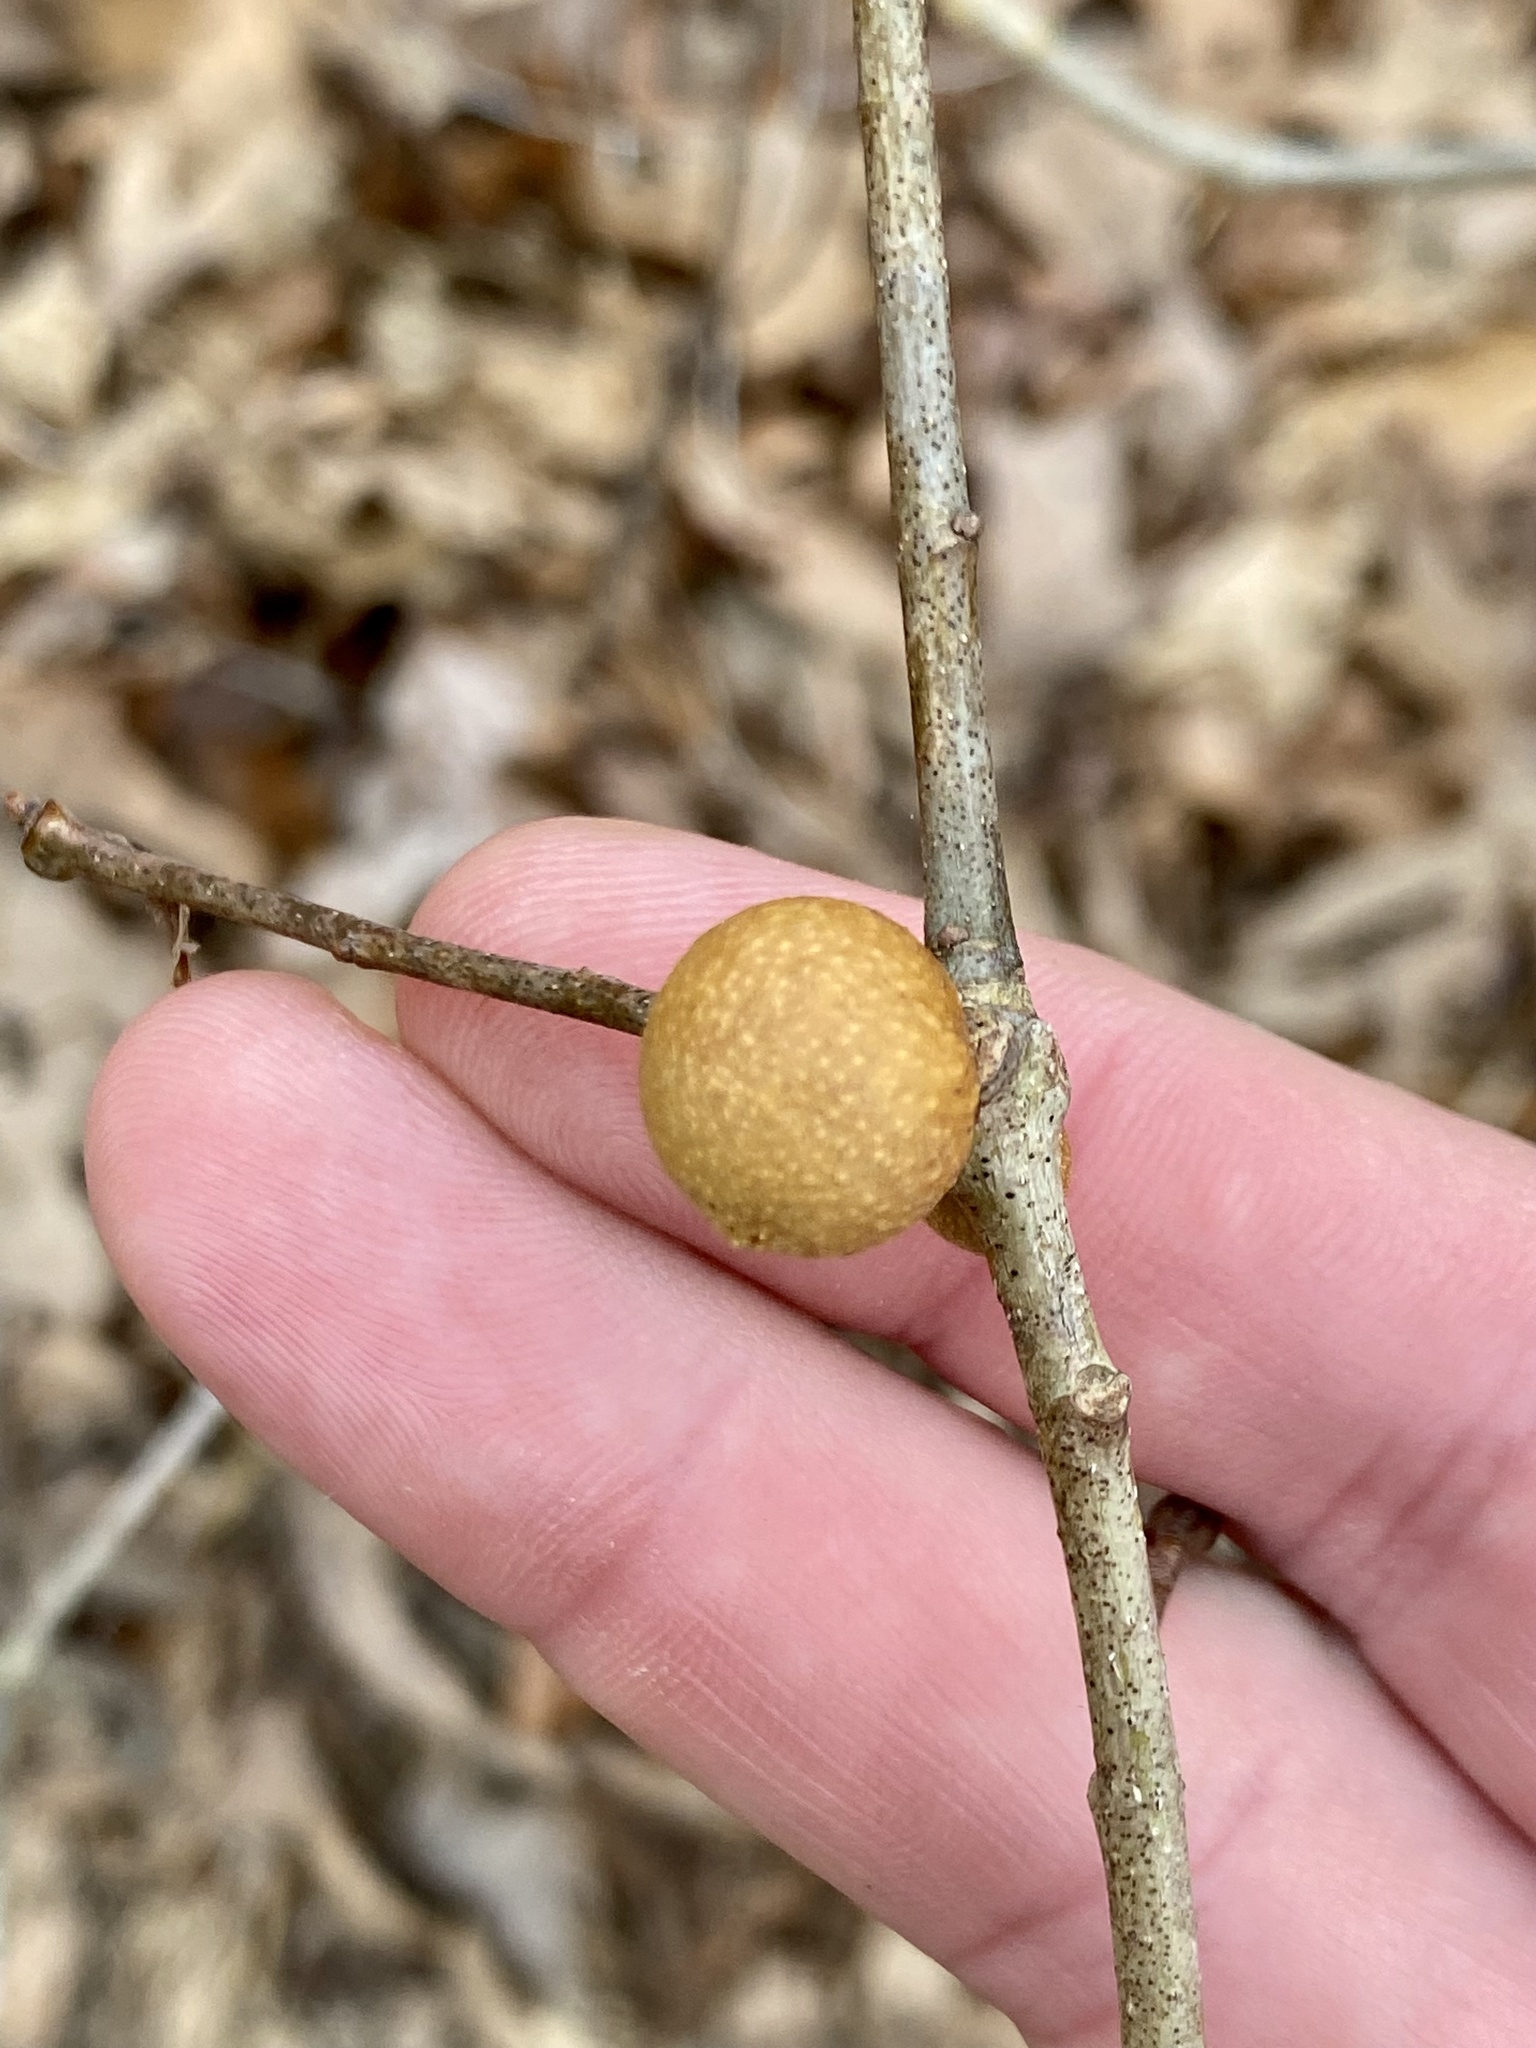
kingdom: Animalia
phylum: Arthropoda
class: Insecta
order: Hymenoptera
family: Cynipidae
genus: Disholcaspis
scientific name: Disholcaspis quercusglobulus
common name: Round bullet gall wasp
